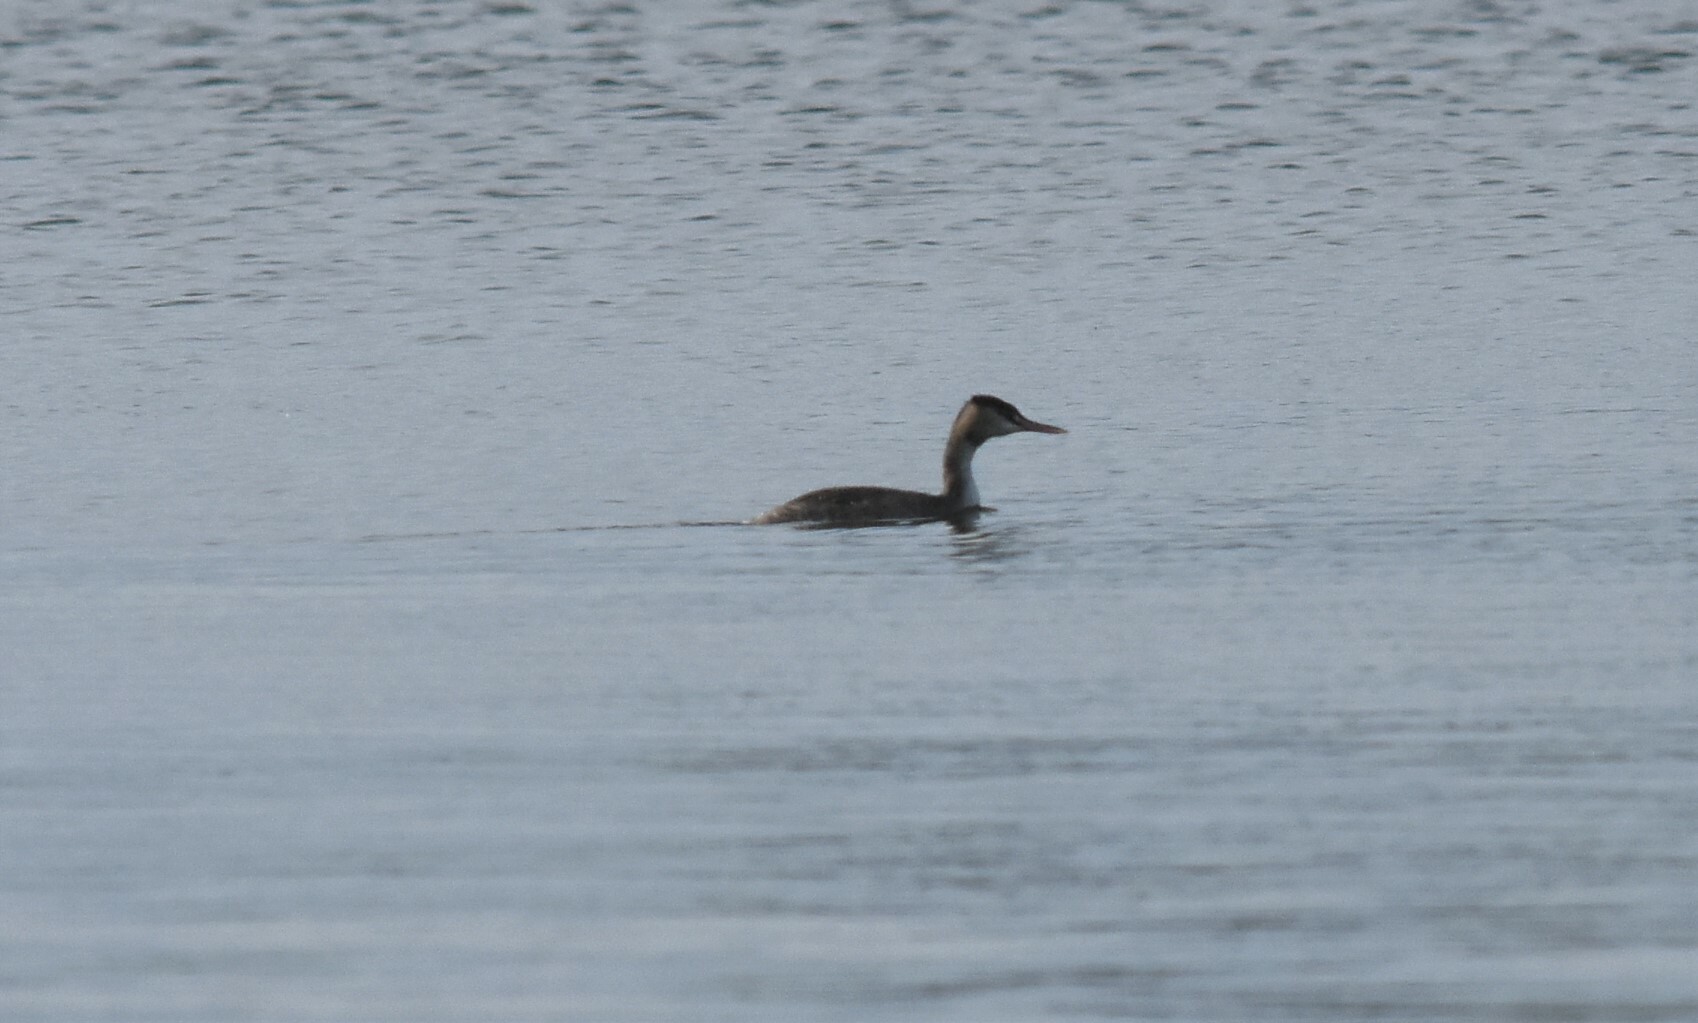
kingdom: Animalia
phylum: Chordata
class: Aves
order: Podicipediformes
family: Podicipedidae
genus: Podiceps
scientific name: Podiceps cristatus
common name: Great crested grebe
